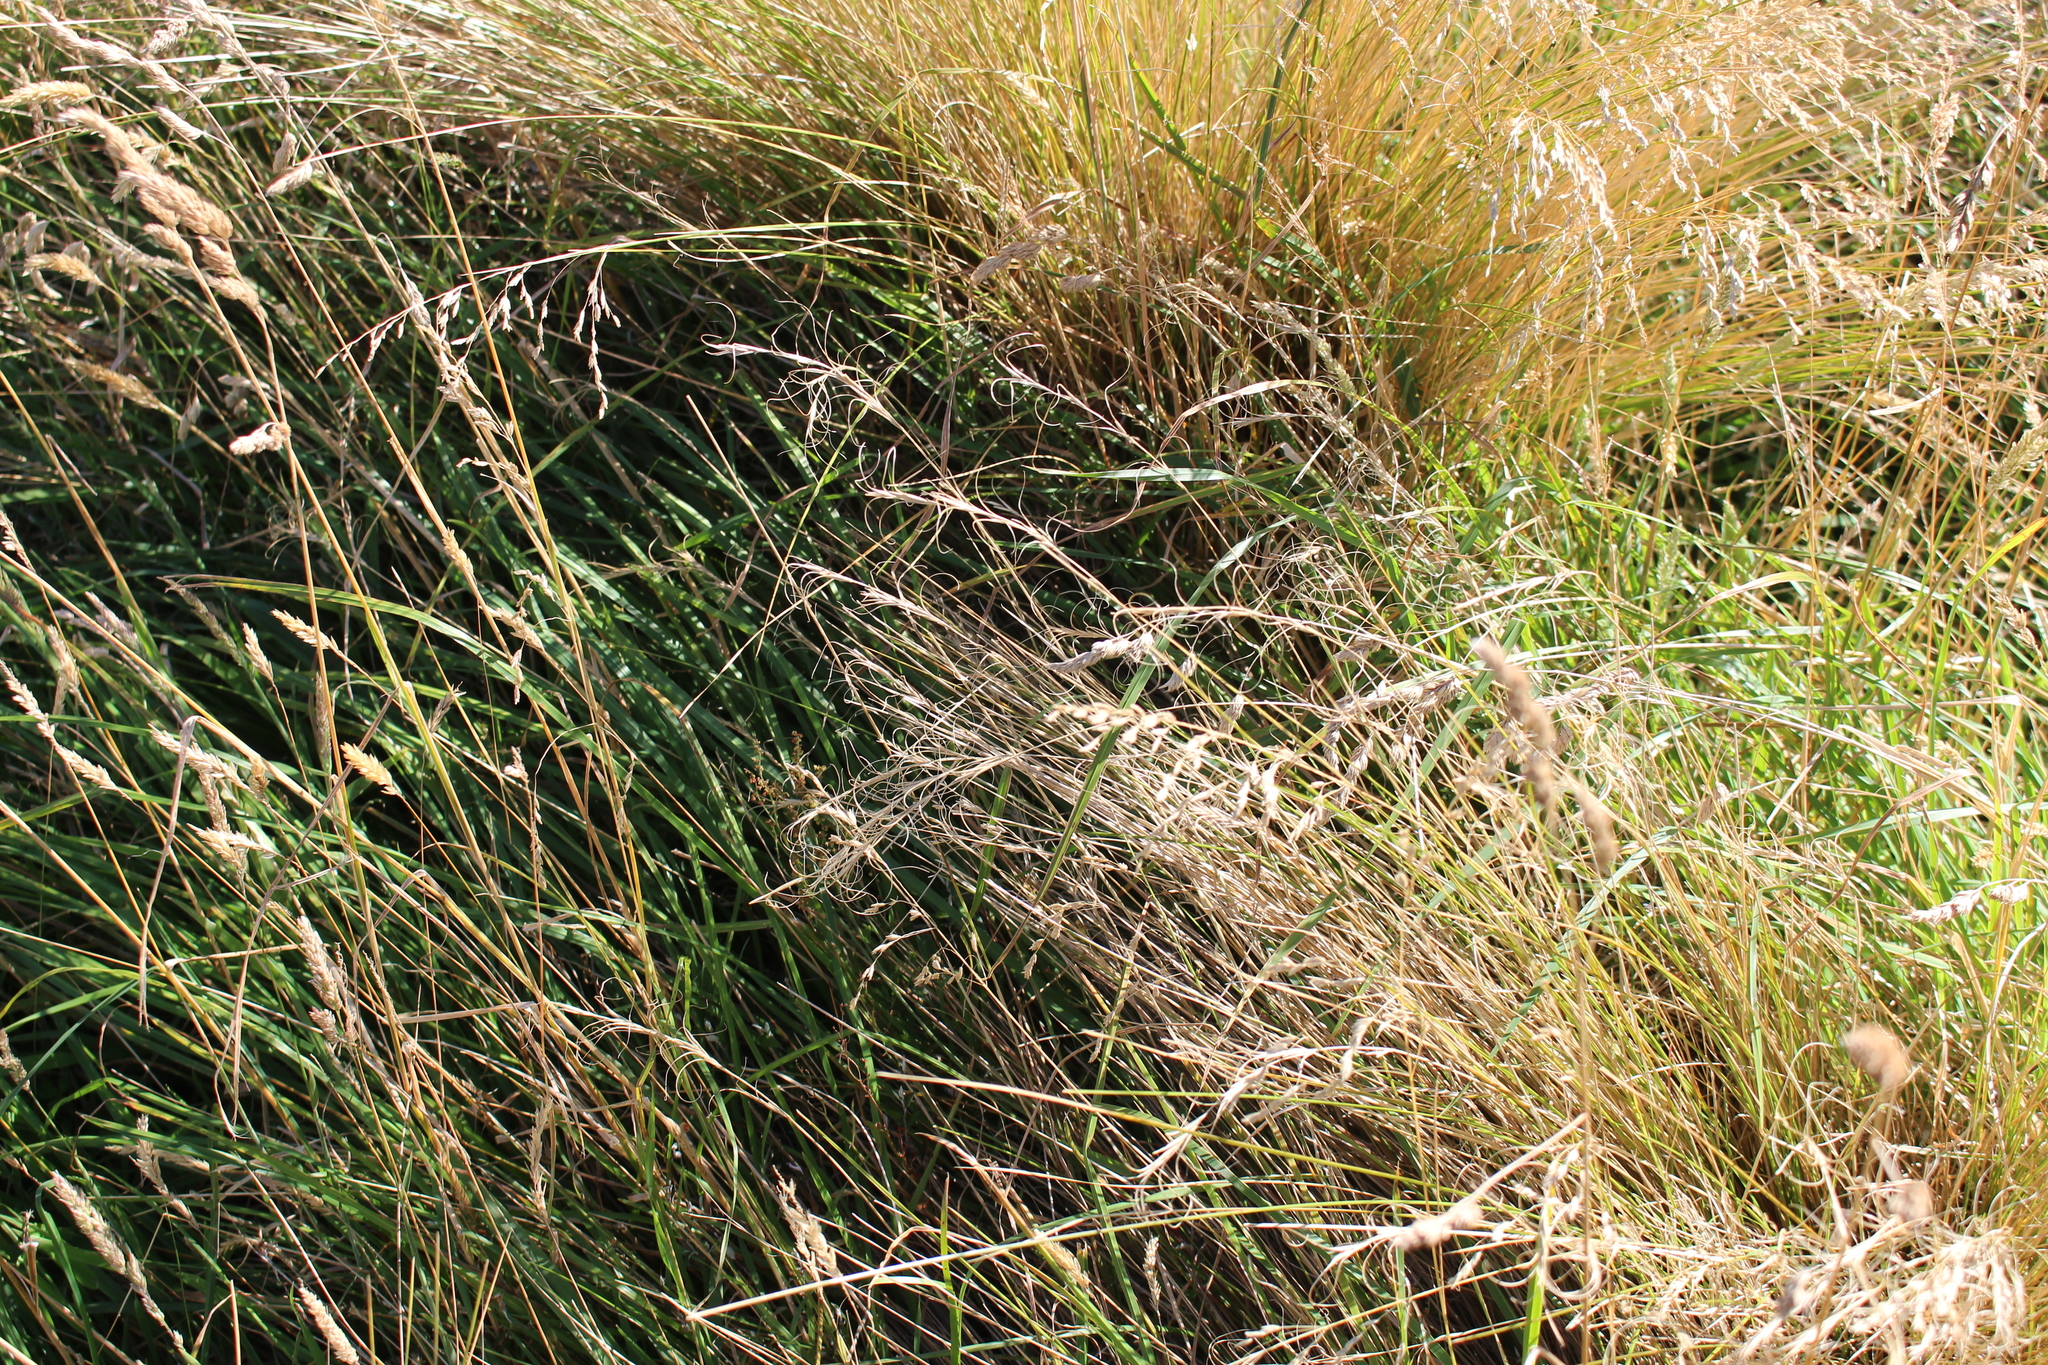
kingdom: Plantae
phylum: Tracheophyta
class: Liliopsida
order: Poales
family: Poaceae
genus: Anthosachne
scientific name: Anthosachne solandri
